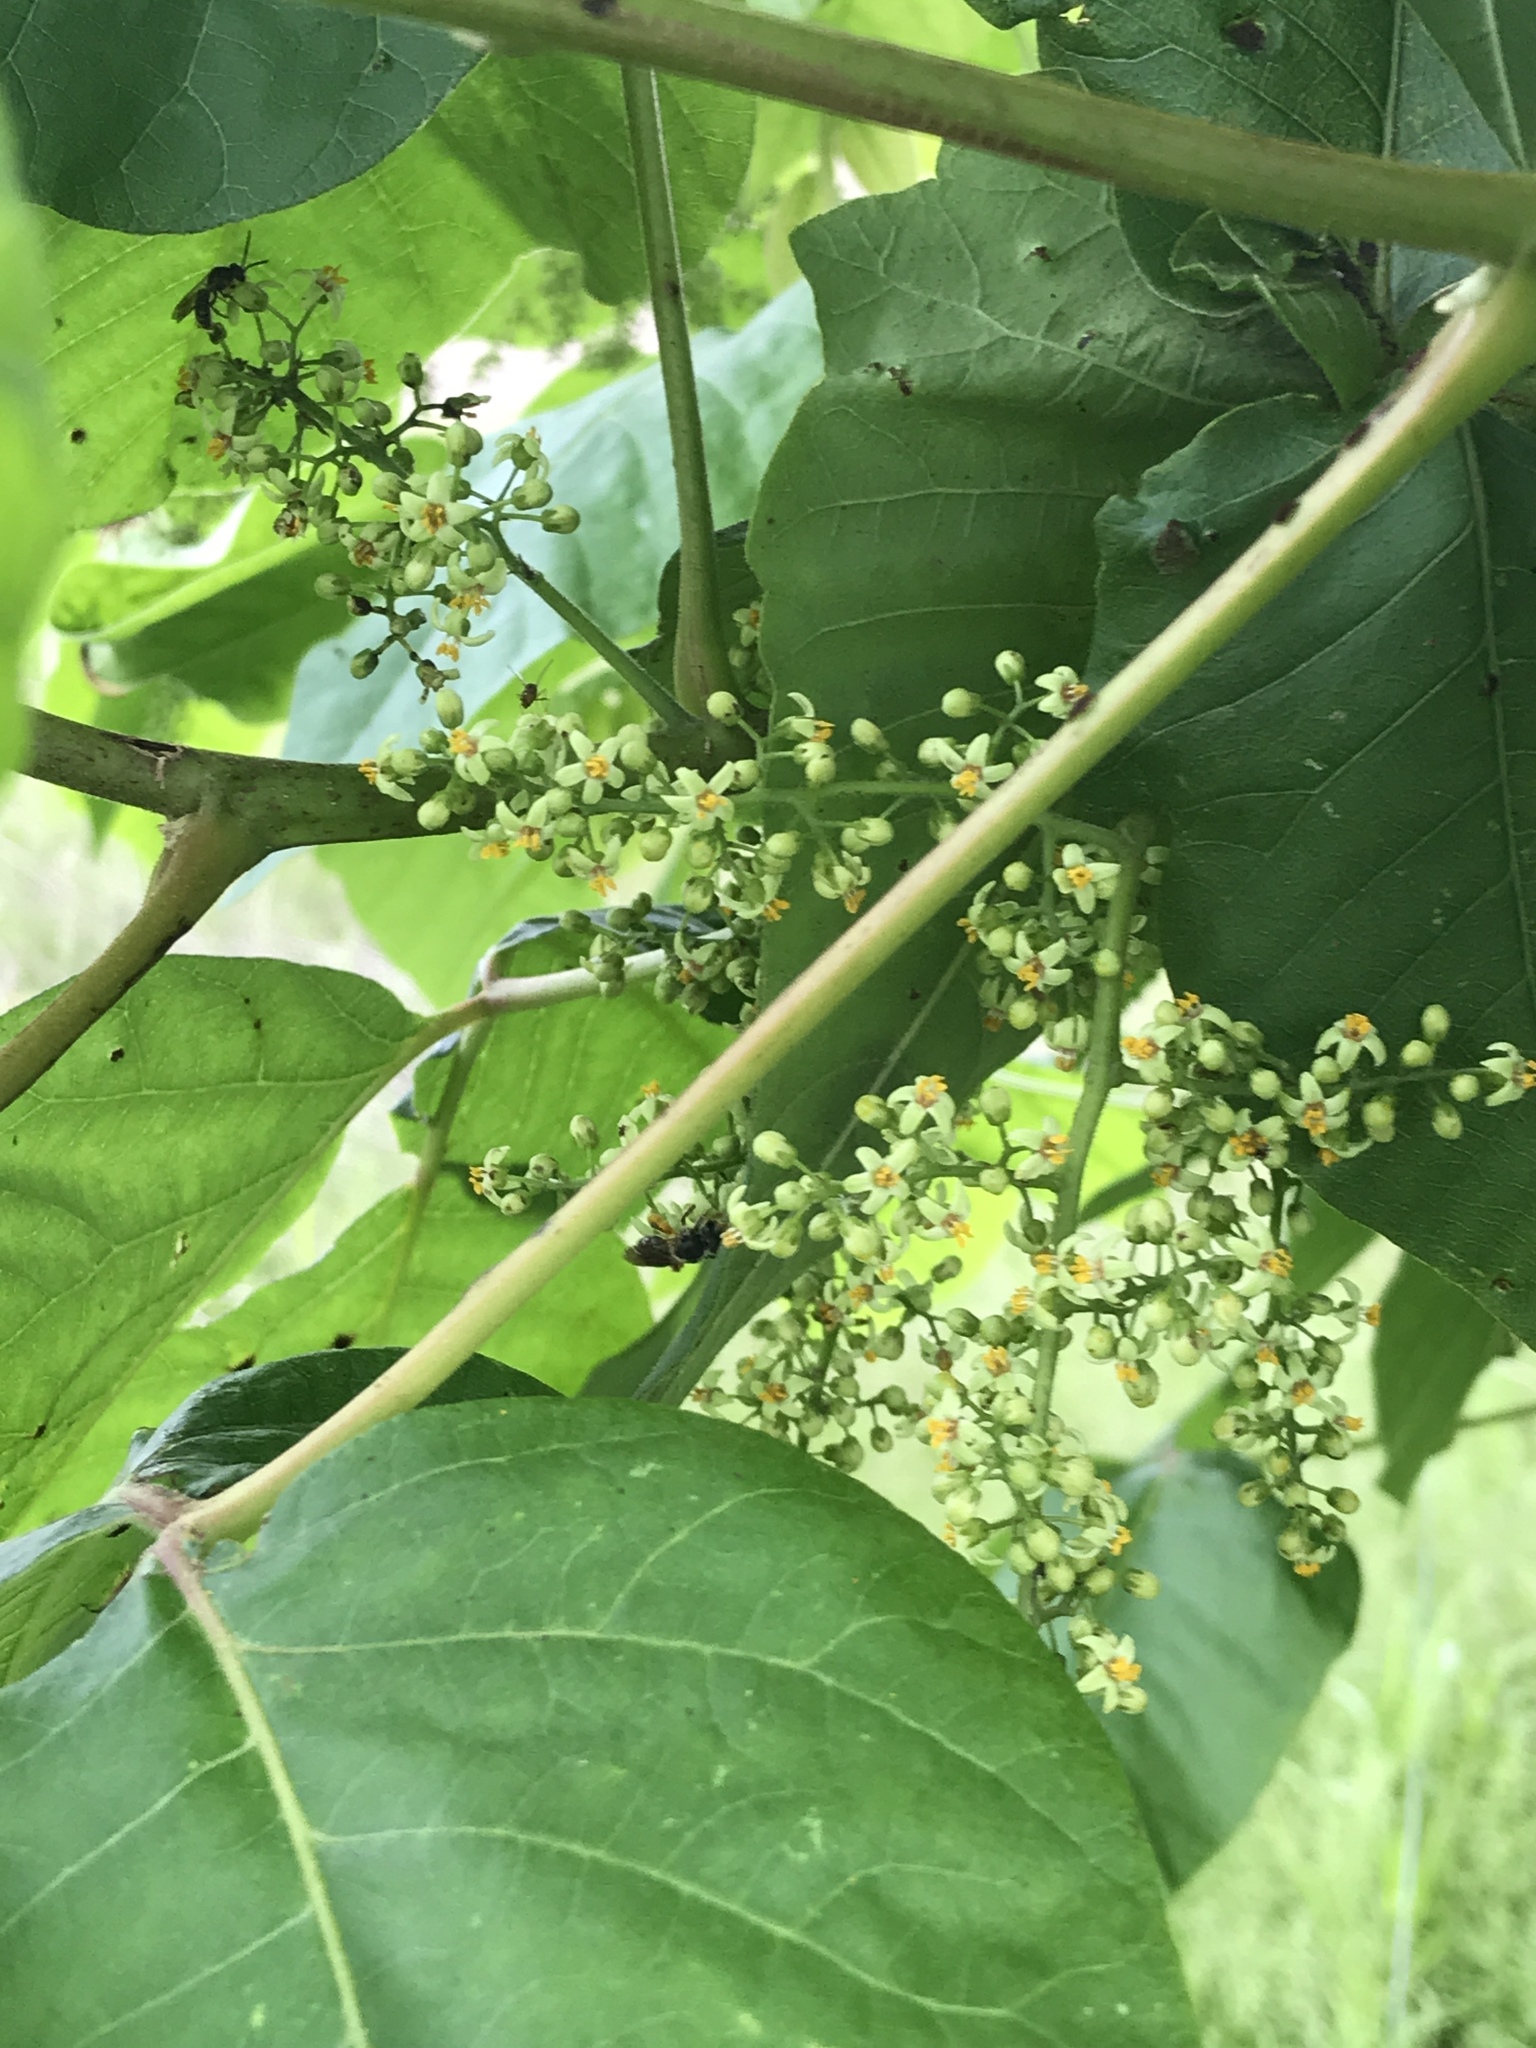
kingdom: Plantae
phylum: Tracheophyta
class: Magnoliopsida
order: Sapindales
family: Anacardiaceae
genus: Toxicodendron
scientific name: Toxicodendron radicans
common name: Poison ivy
